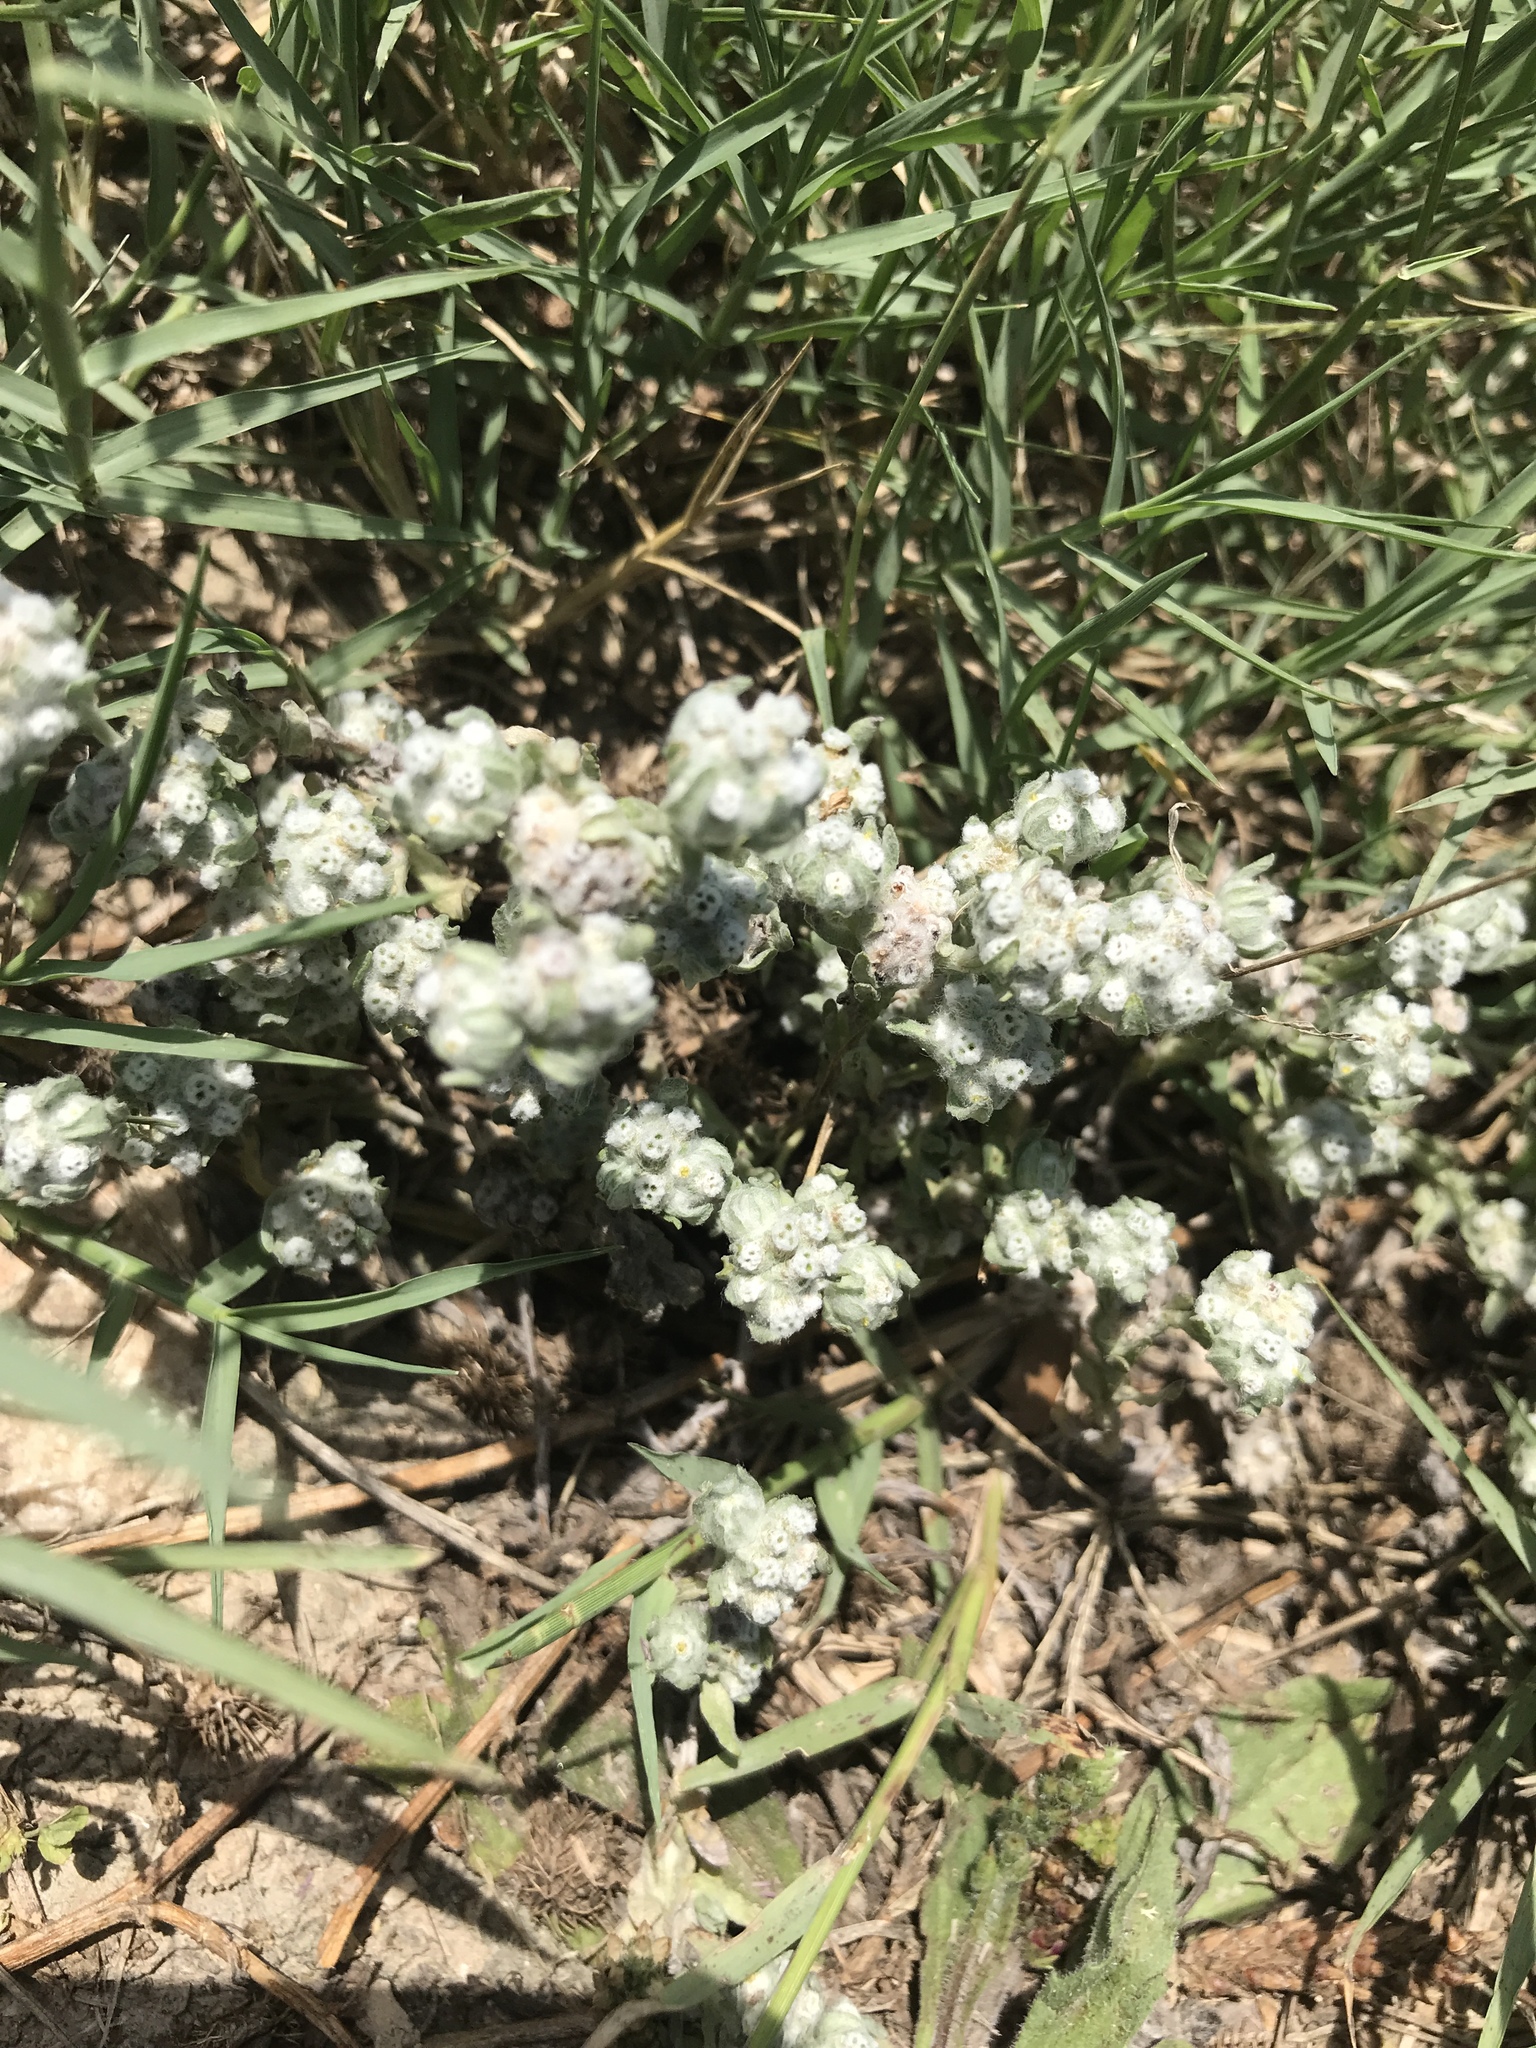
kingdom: Plantae
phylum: Tracheophyta
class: Magnoliopsida
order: Asterales
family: Asteraceae
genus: Diaperia
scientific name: Diaperia verna
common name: Many-stem rabbit-tobacco
